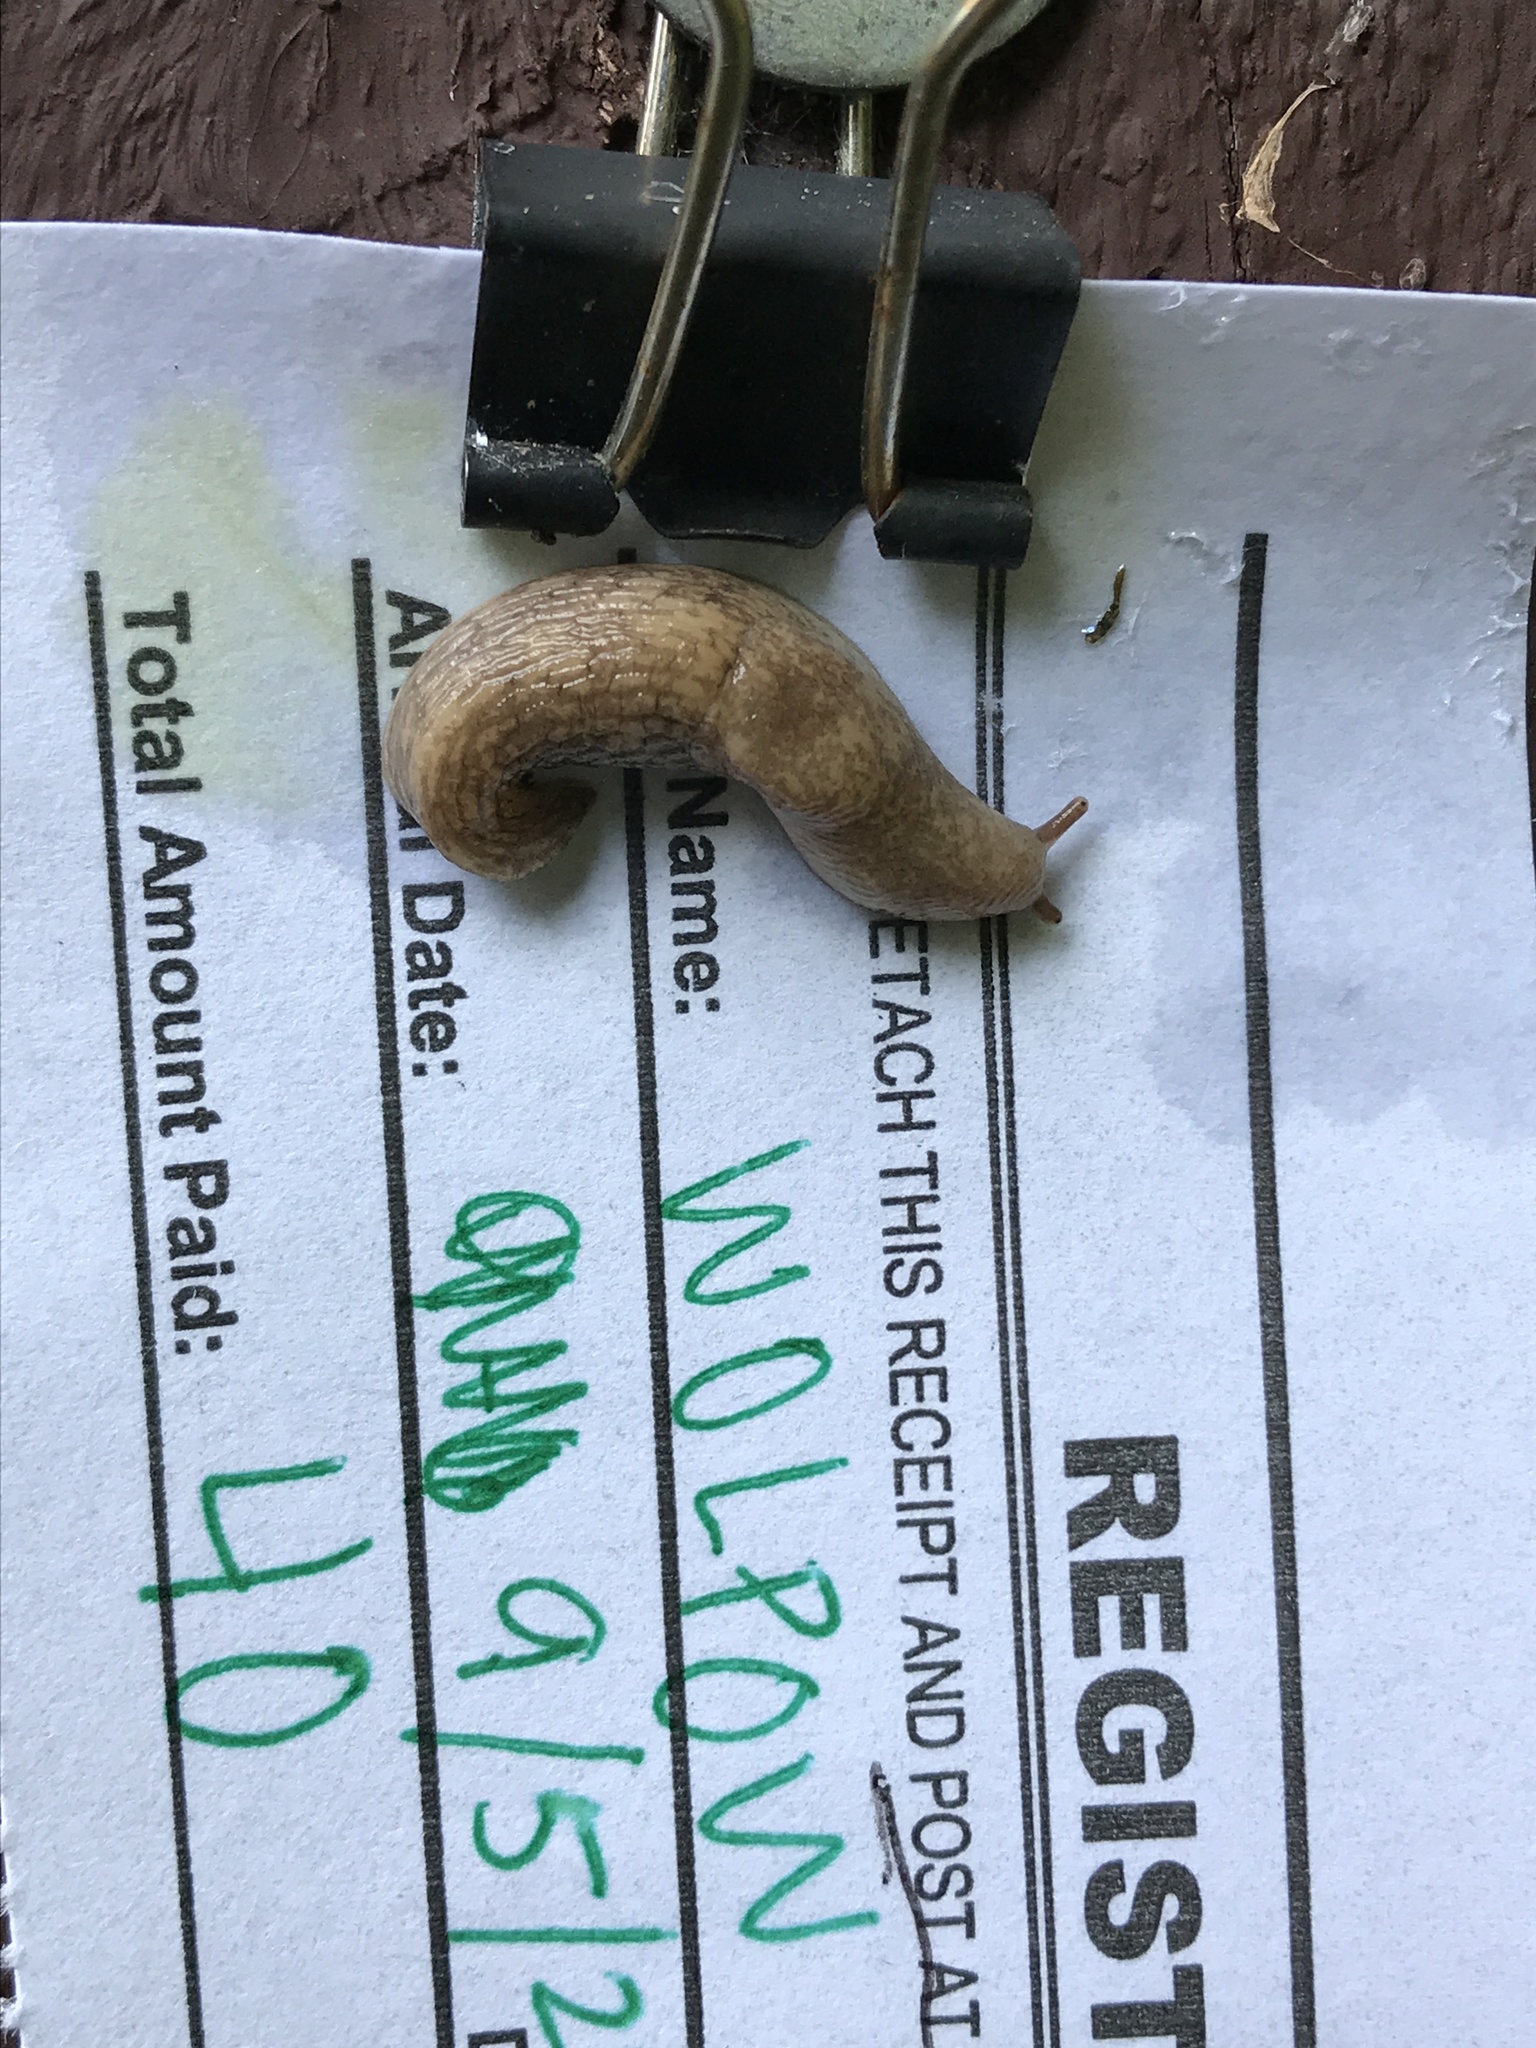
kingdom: Animalia
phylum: Mollusca
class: Gastropoda
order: Stylommatophora
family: Agriolimacidae
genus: Deroceras
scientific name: Deroceras reticulatum
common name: Gray field slug
